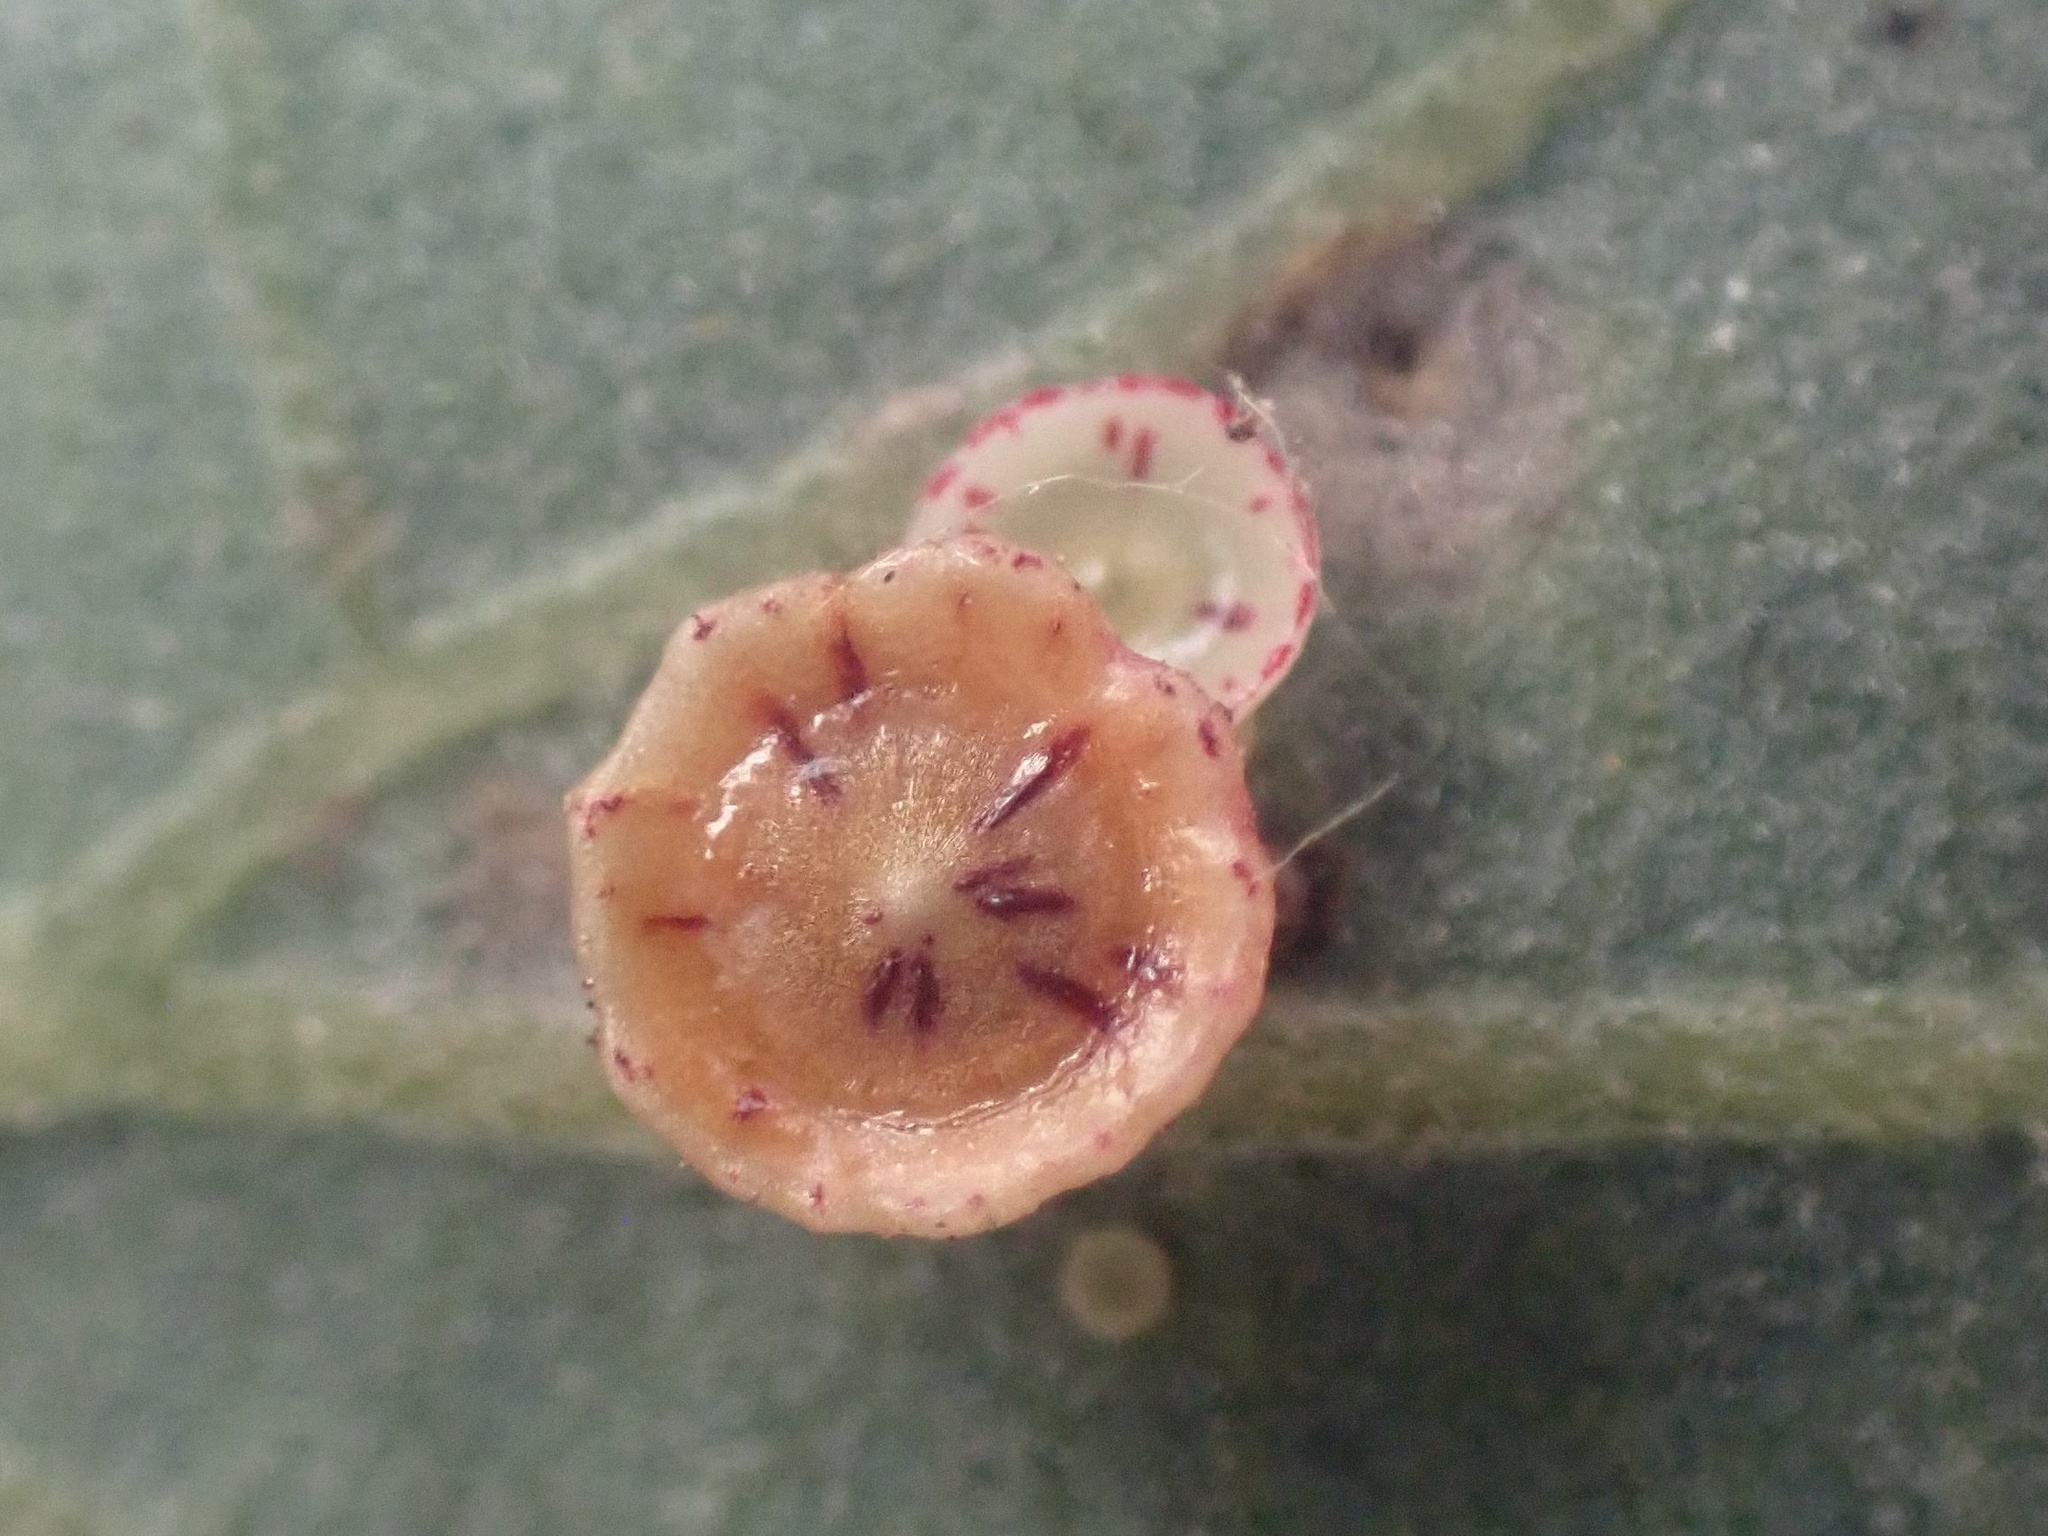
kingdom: Animalia
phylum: Arthropoda
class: Insecta
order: Hymenoptera
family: Cynipidae
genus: Andricus
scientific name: Andricus
